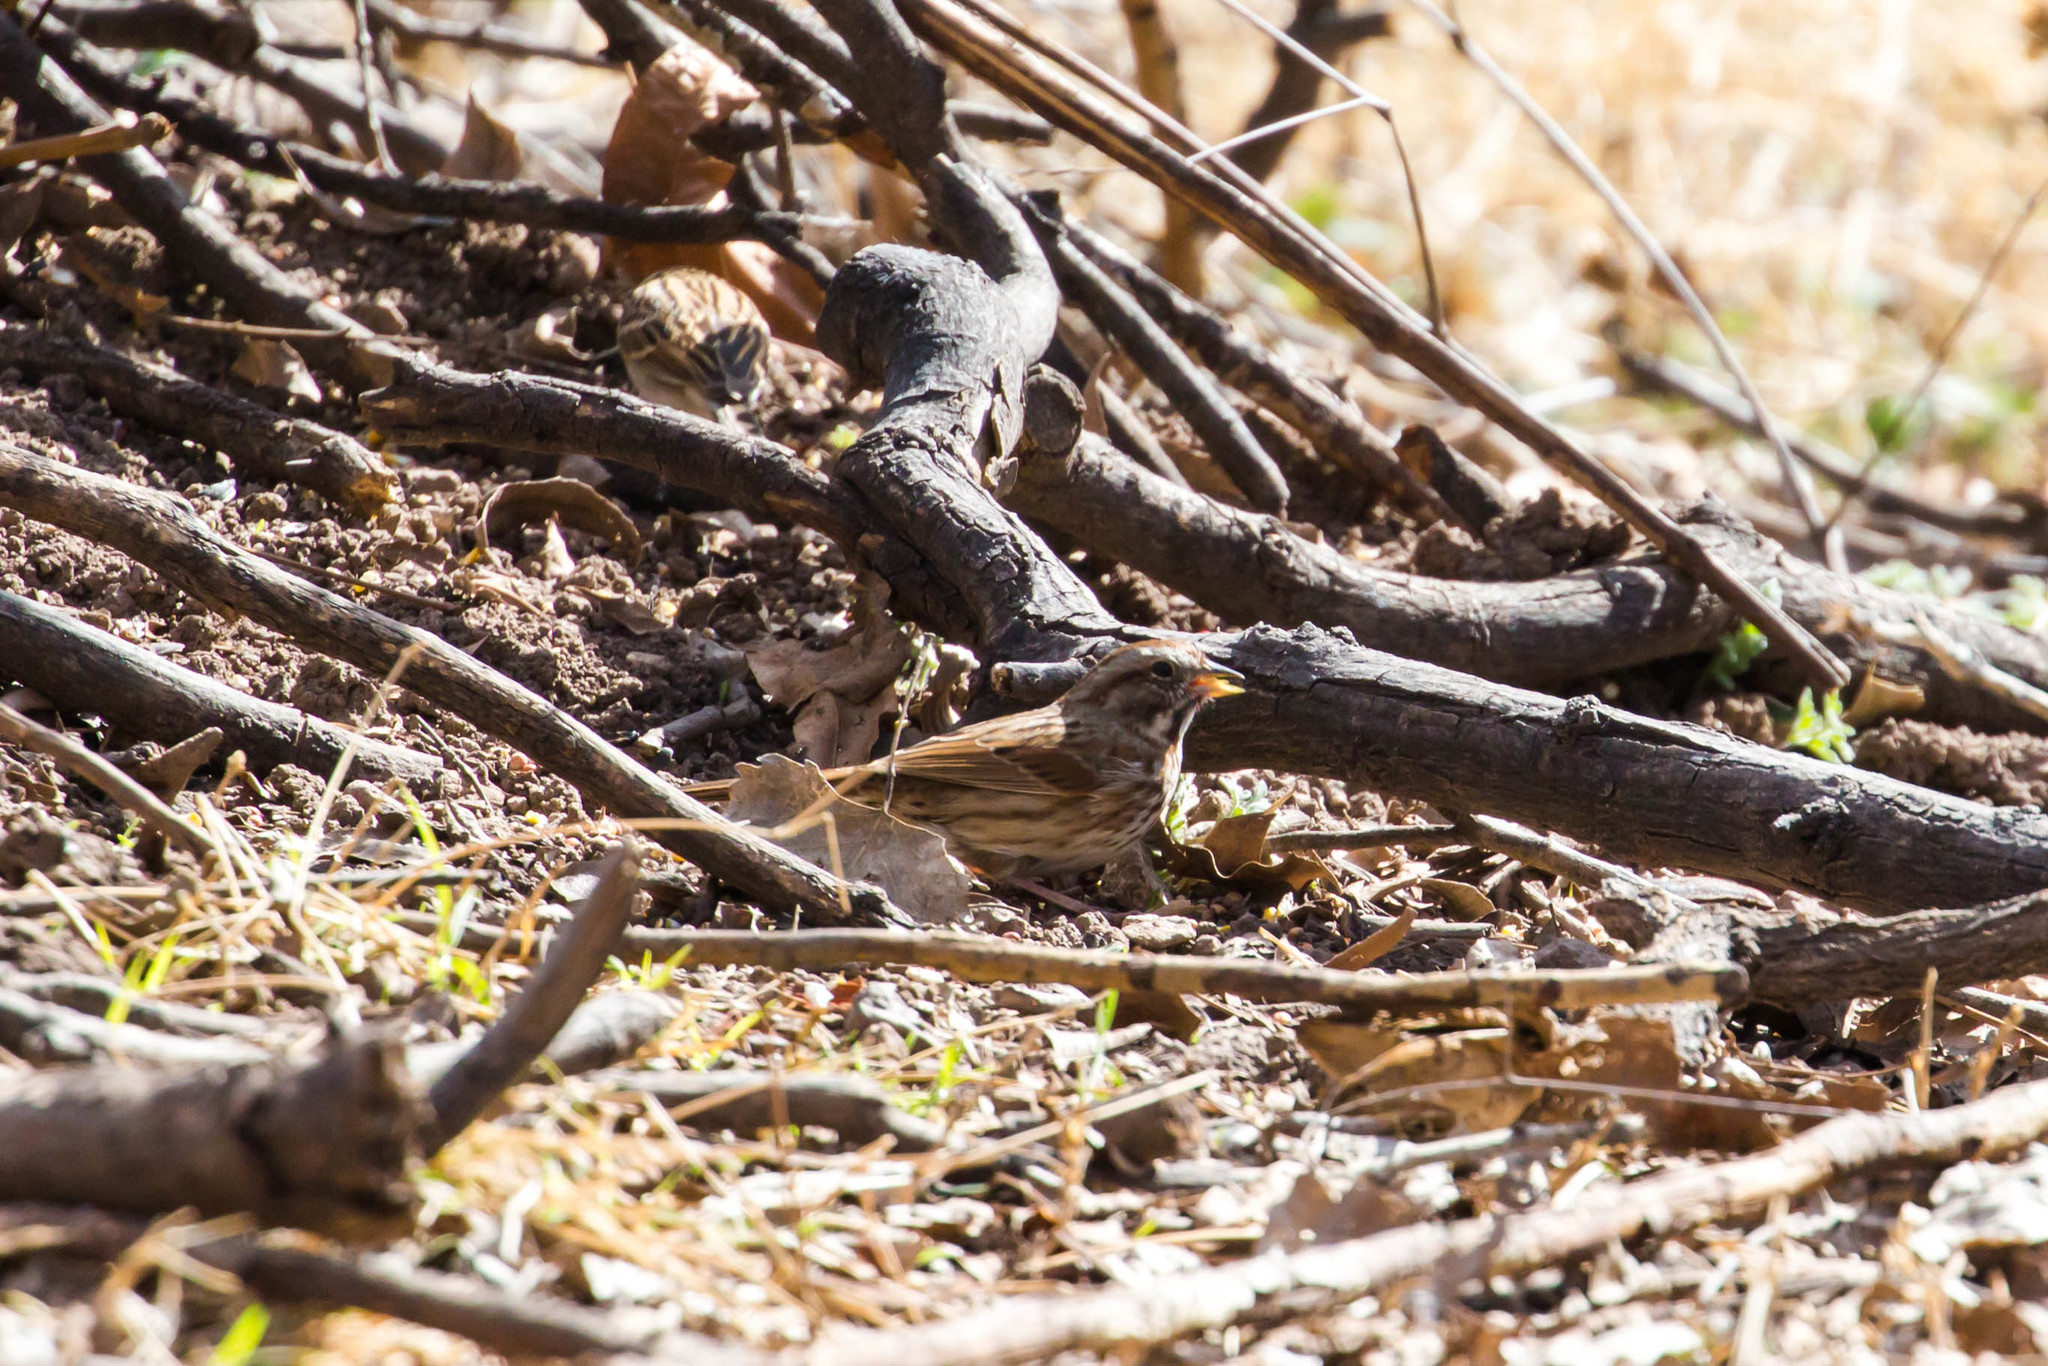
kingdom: Animalia
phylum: Chordata
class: Aves
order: Passeriformes
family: Passerellidae
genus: Melospiza
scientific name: Melospiza melodia
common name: Song sparrow
